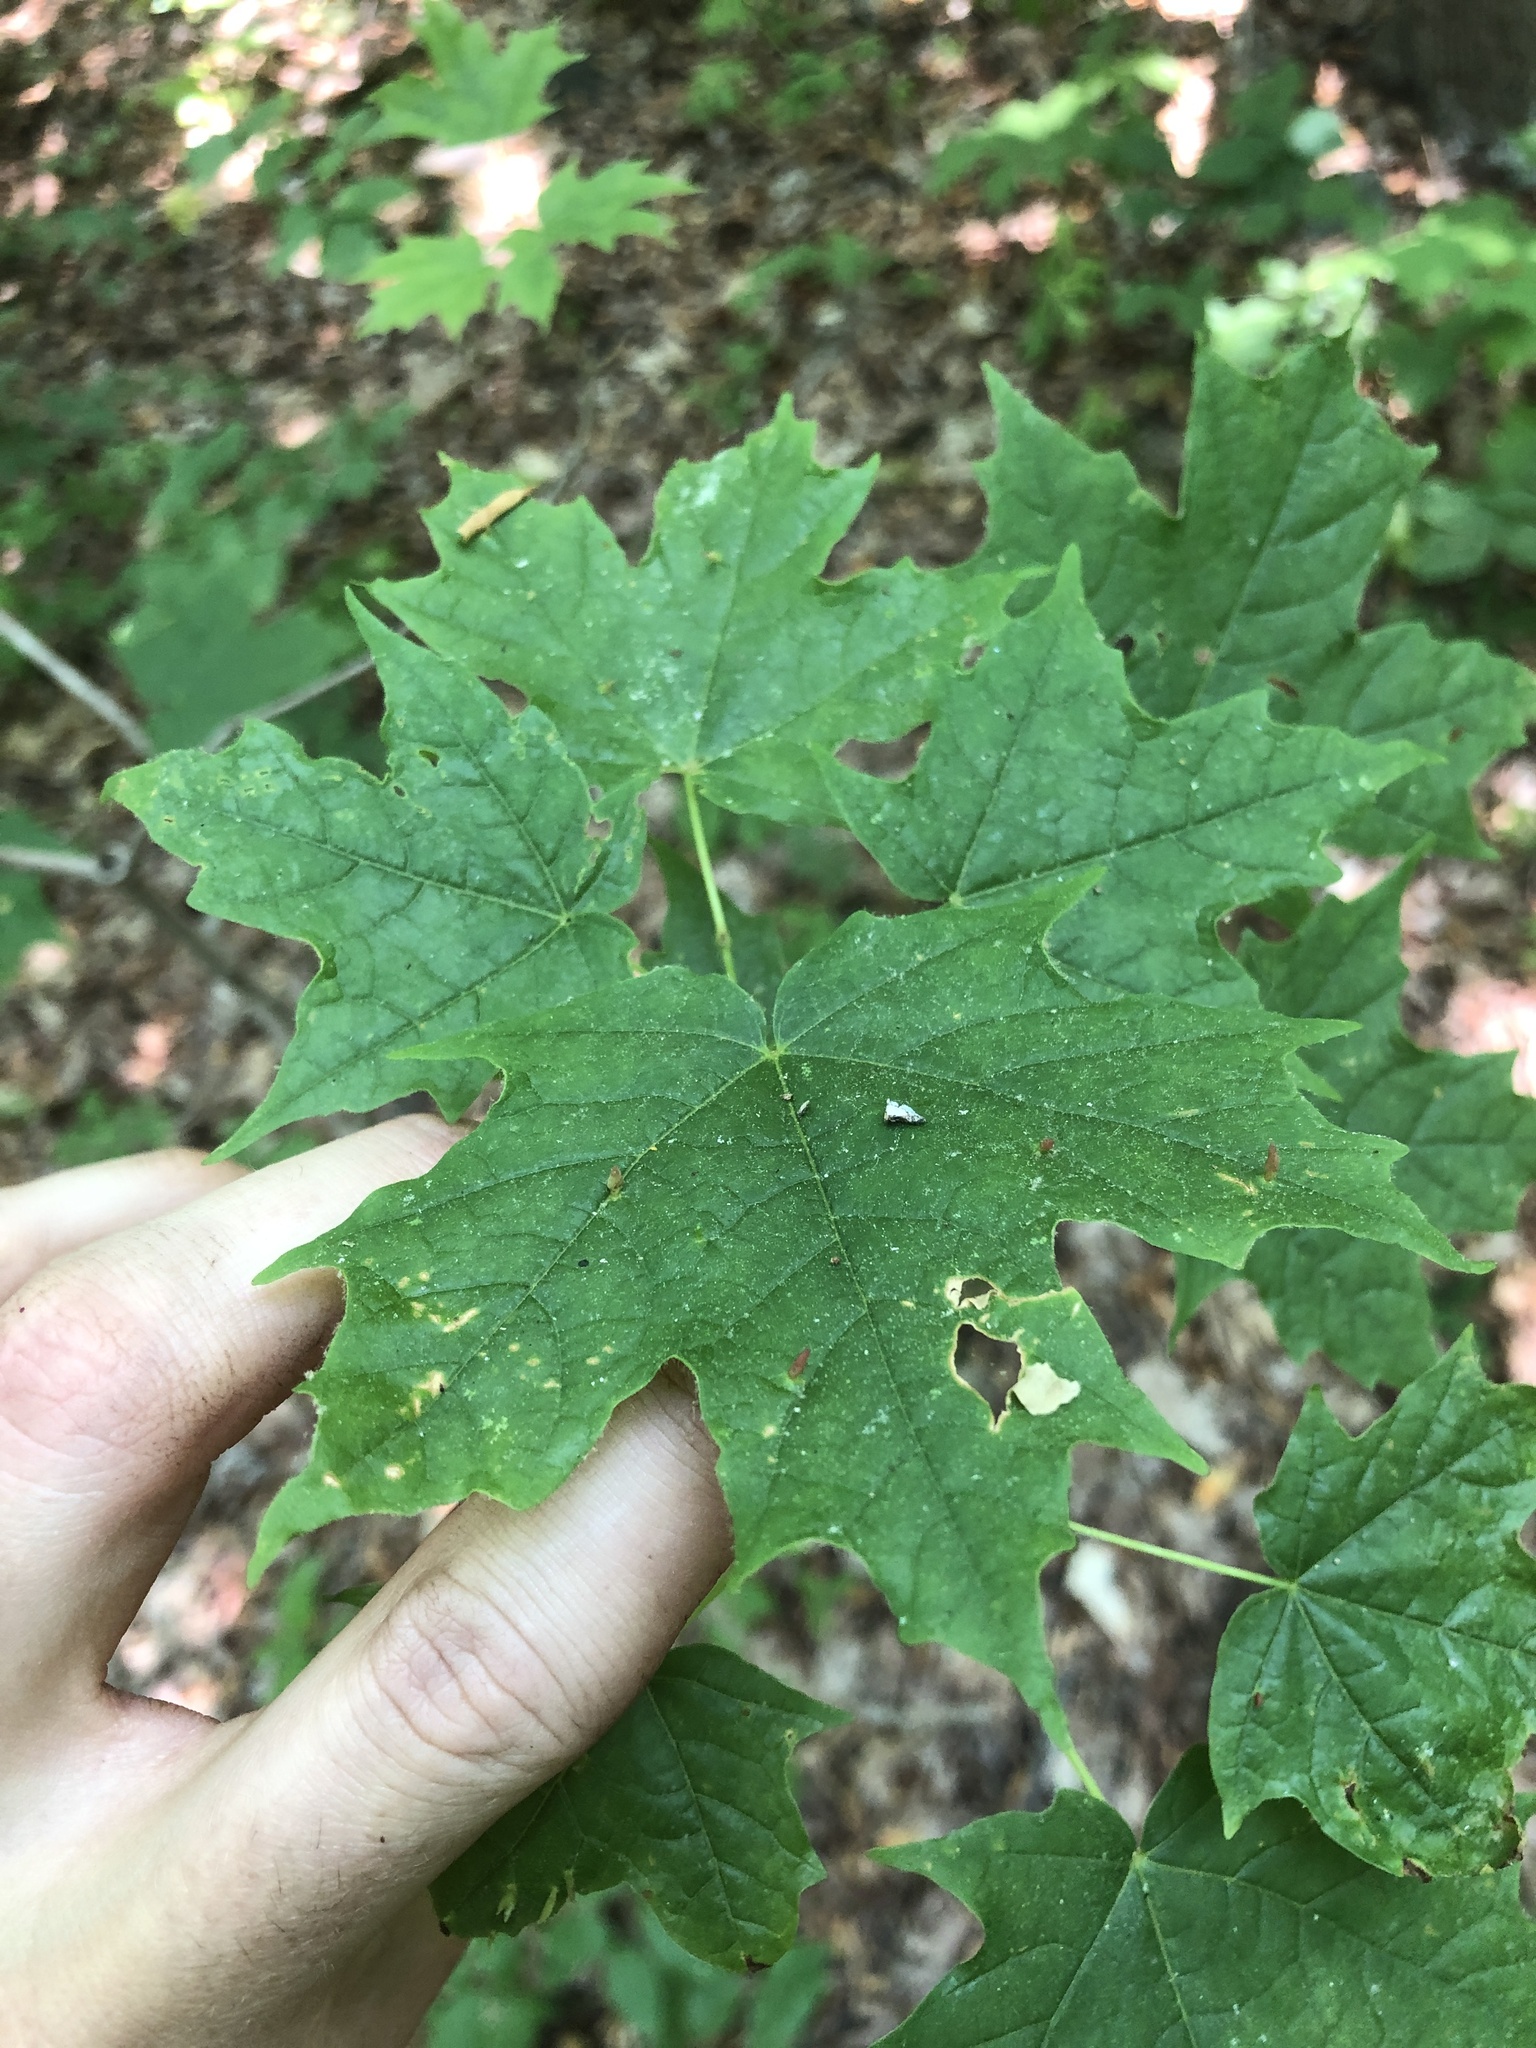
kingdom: Plantae
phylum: Tracheophyta
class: Magnoliopsida
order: Sapindales
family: Sapindaceae
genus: Acer
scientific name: Acer saccharum
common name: Sugar maple
